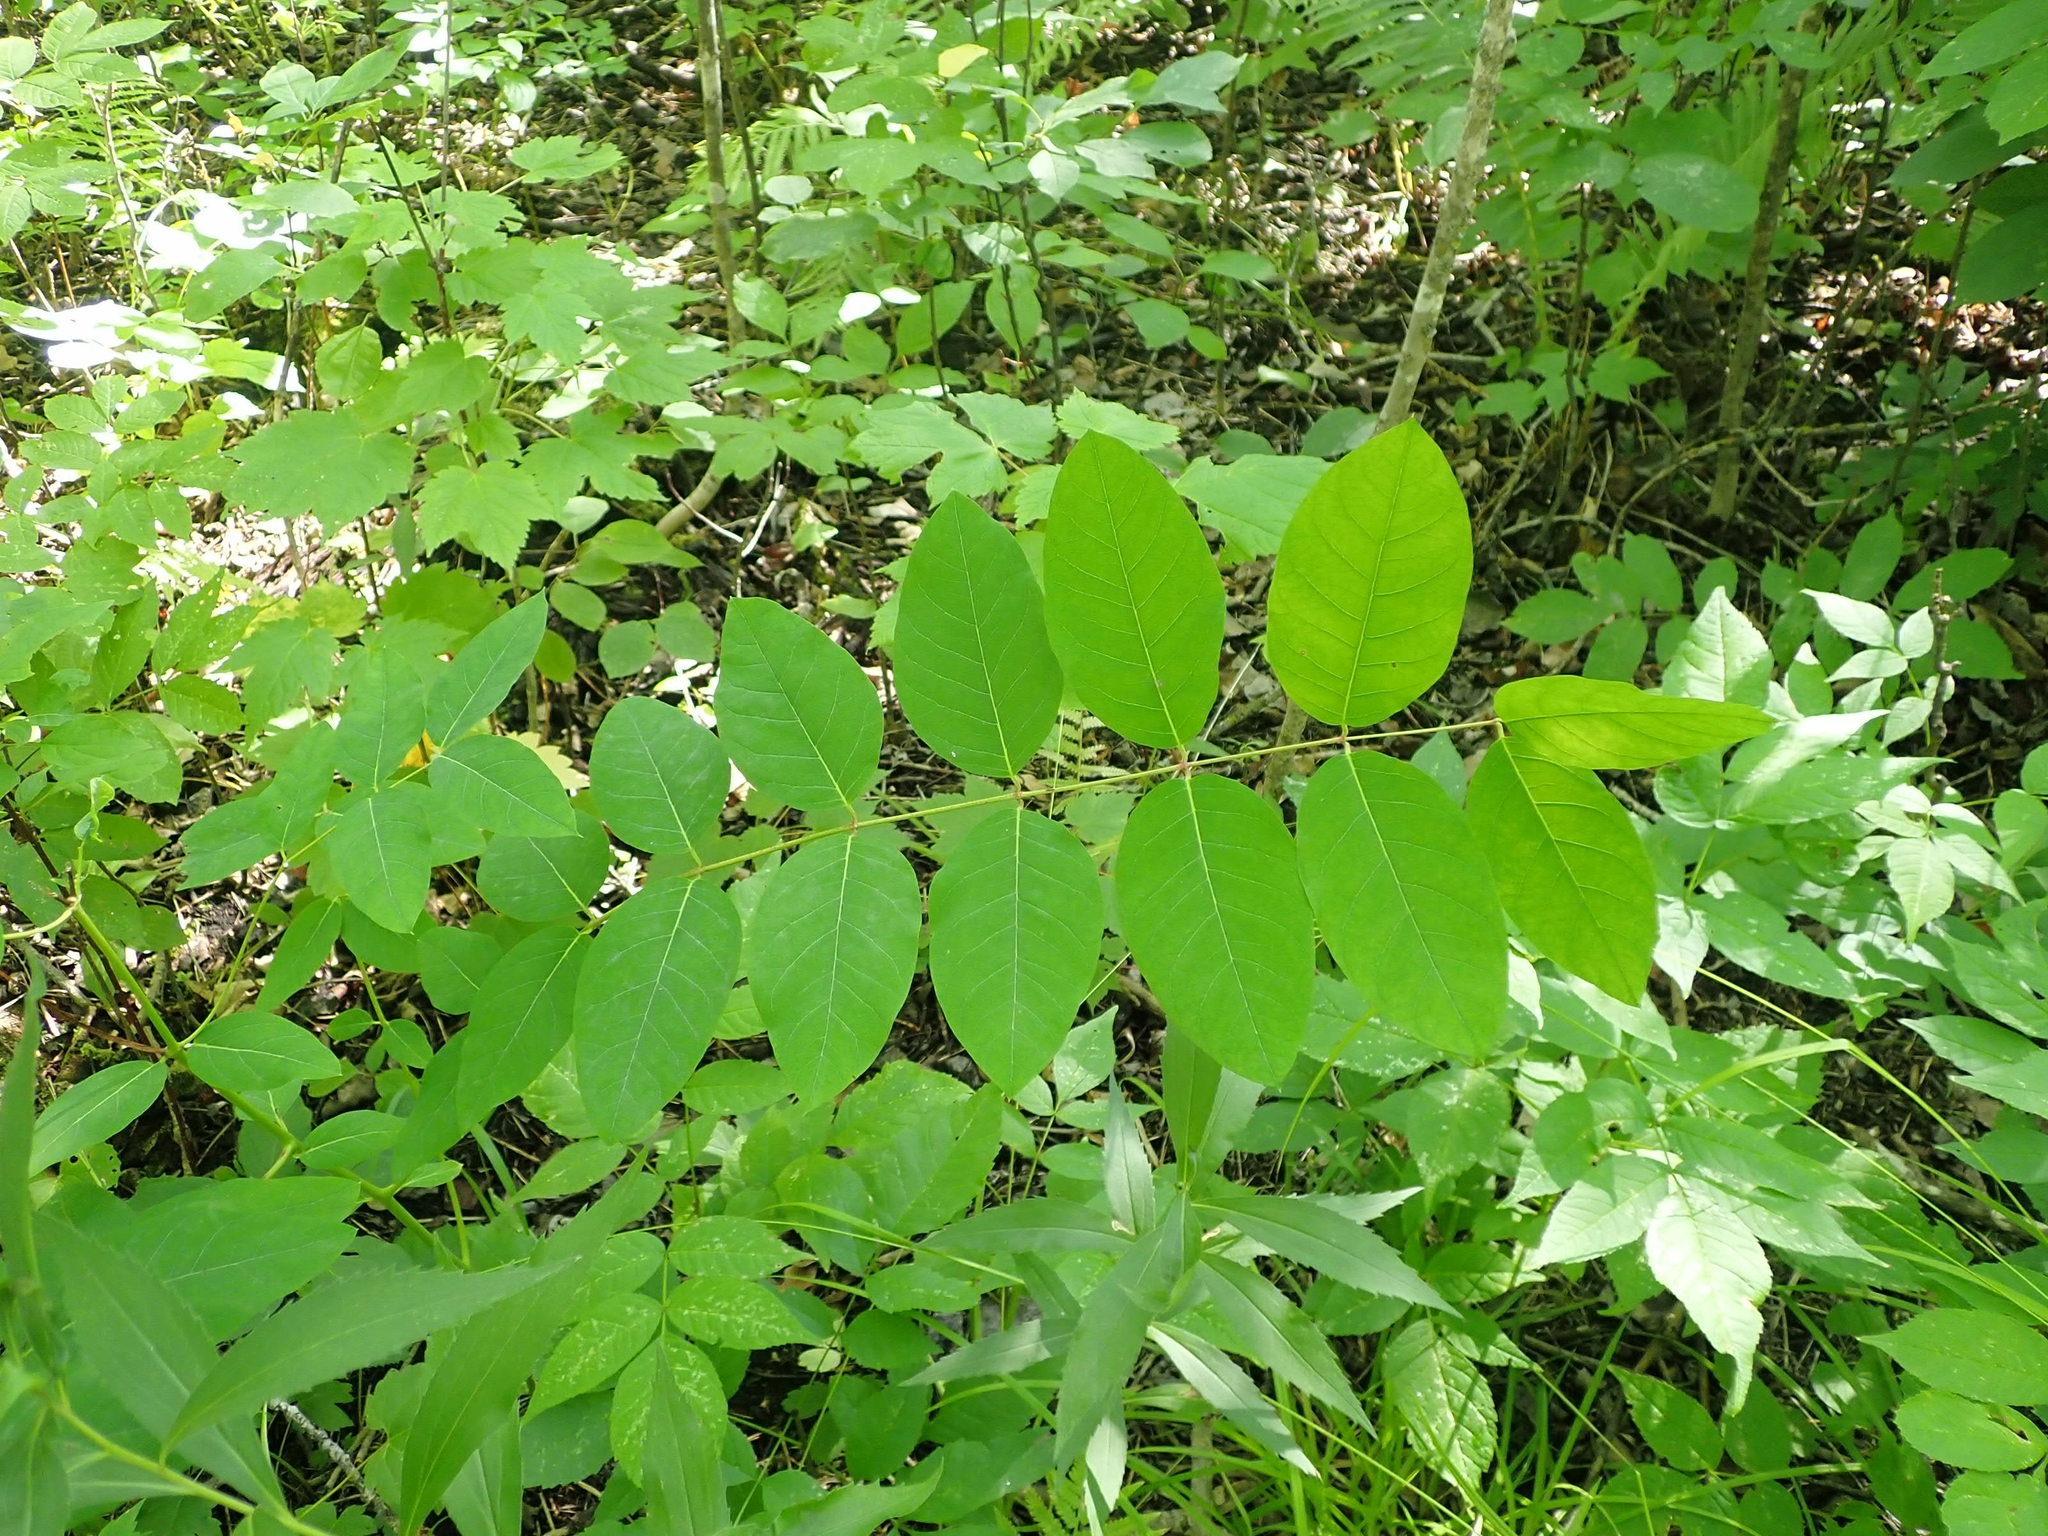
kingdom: Plantae
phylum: Tracheophyta
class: Magnoliopsida
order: Gentianales
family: Apocynaceae
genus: Apocynum
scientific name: Apocynum androsaemifolium
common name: Spreading dogbane
